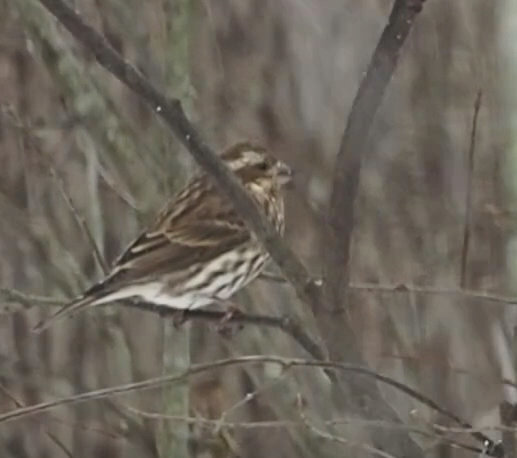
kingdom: Animalia
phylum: Chordata
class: Aves
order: Passeriformes
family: Fringillidae
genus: Haemorhous
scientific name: Haemorhous purpureus
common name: Purple finch
